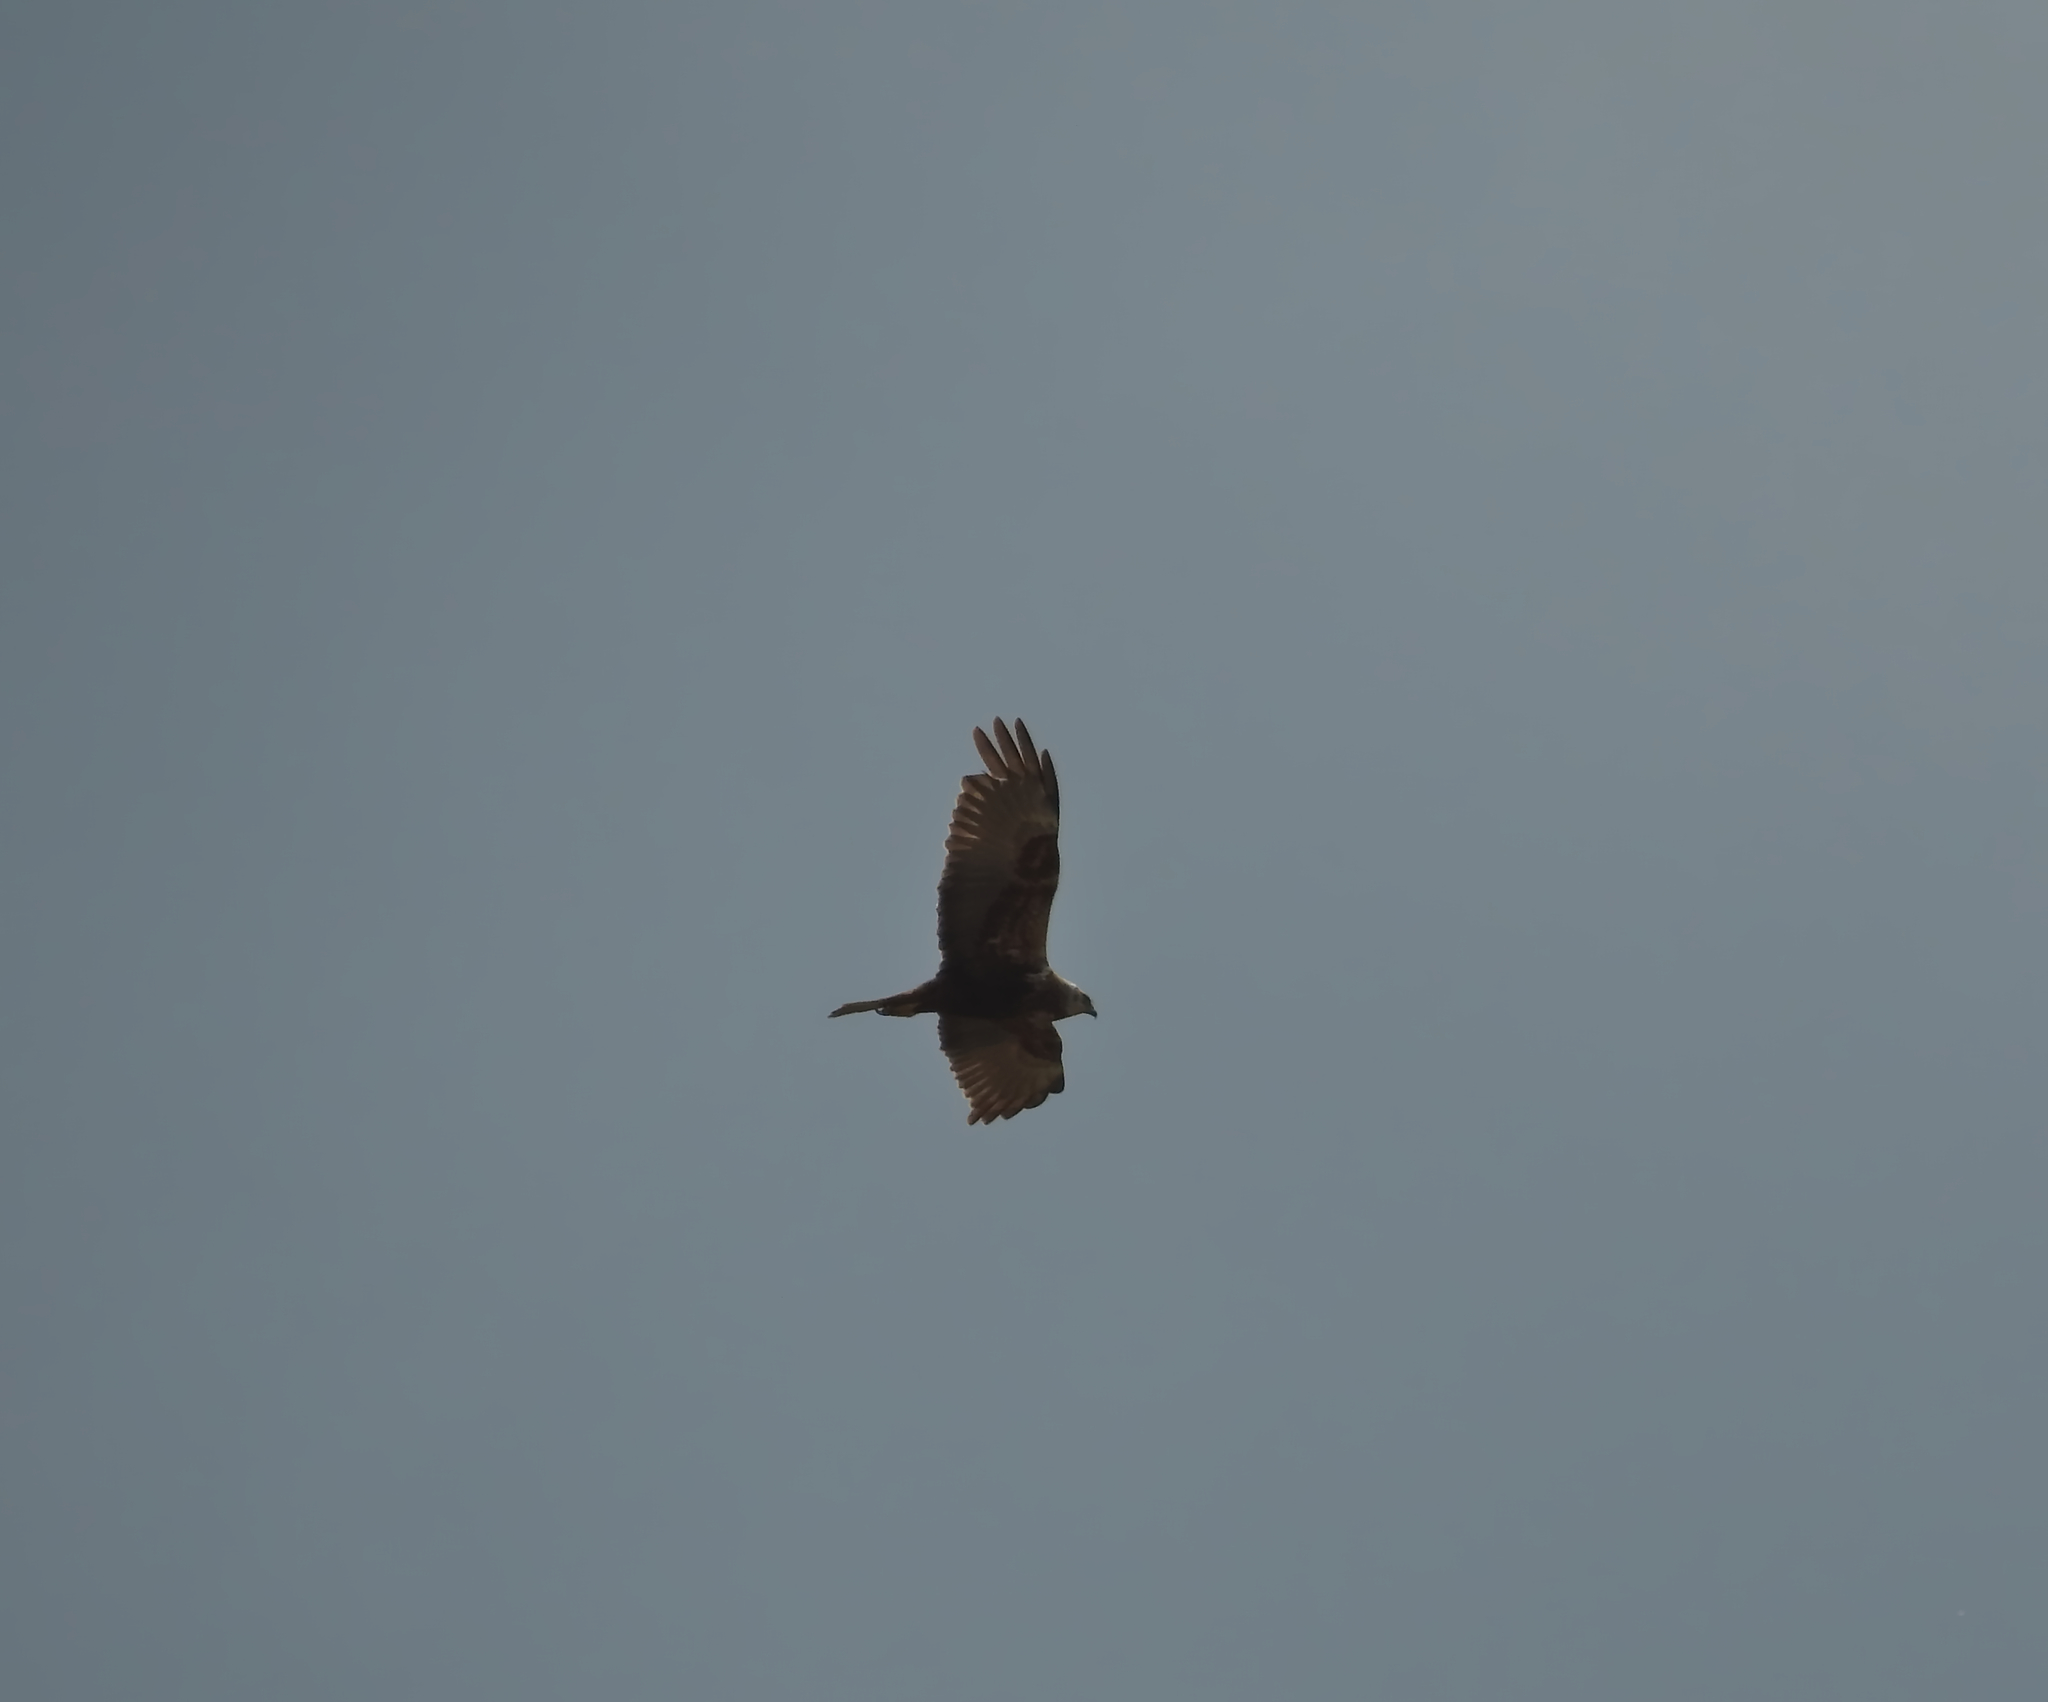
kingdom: Animalia
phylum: Chordata
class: Aves
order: Accipitriformes
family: Accipitridae
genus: Circus
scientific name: Circus aeruginosus
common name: Western marsh harrier
